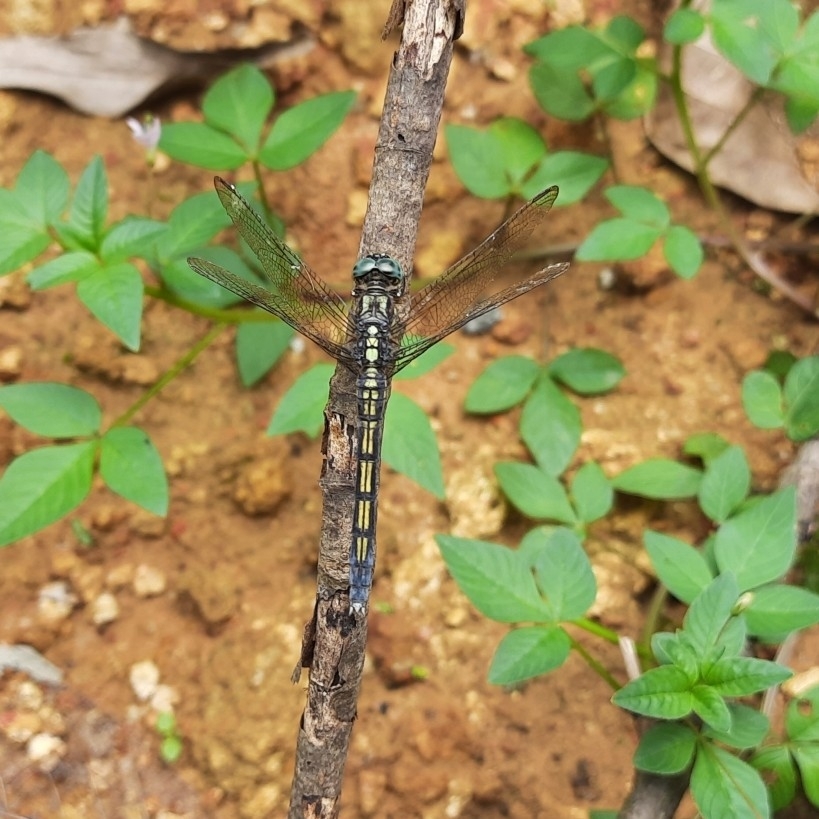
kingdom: Animalia
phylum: Arthropoda
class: Insecta
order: Odonata
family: Libellulidae
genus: Orthetrum
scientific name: Orthetrum luzonicum
